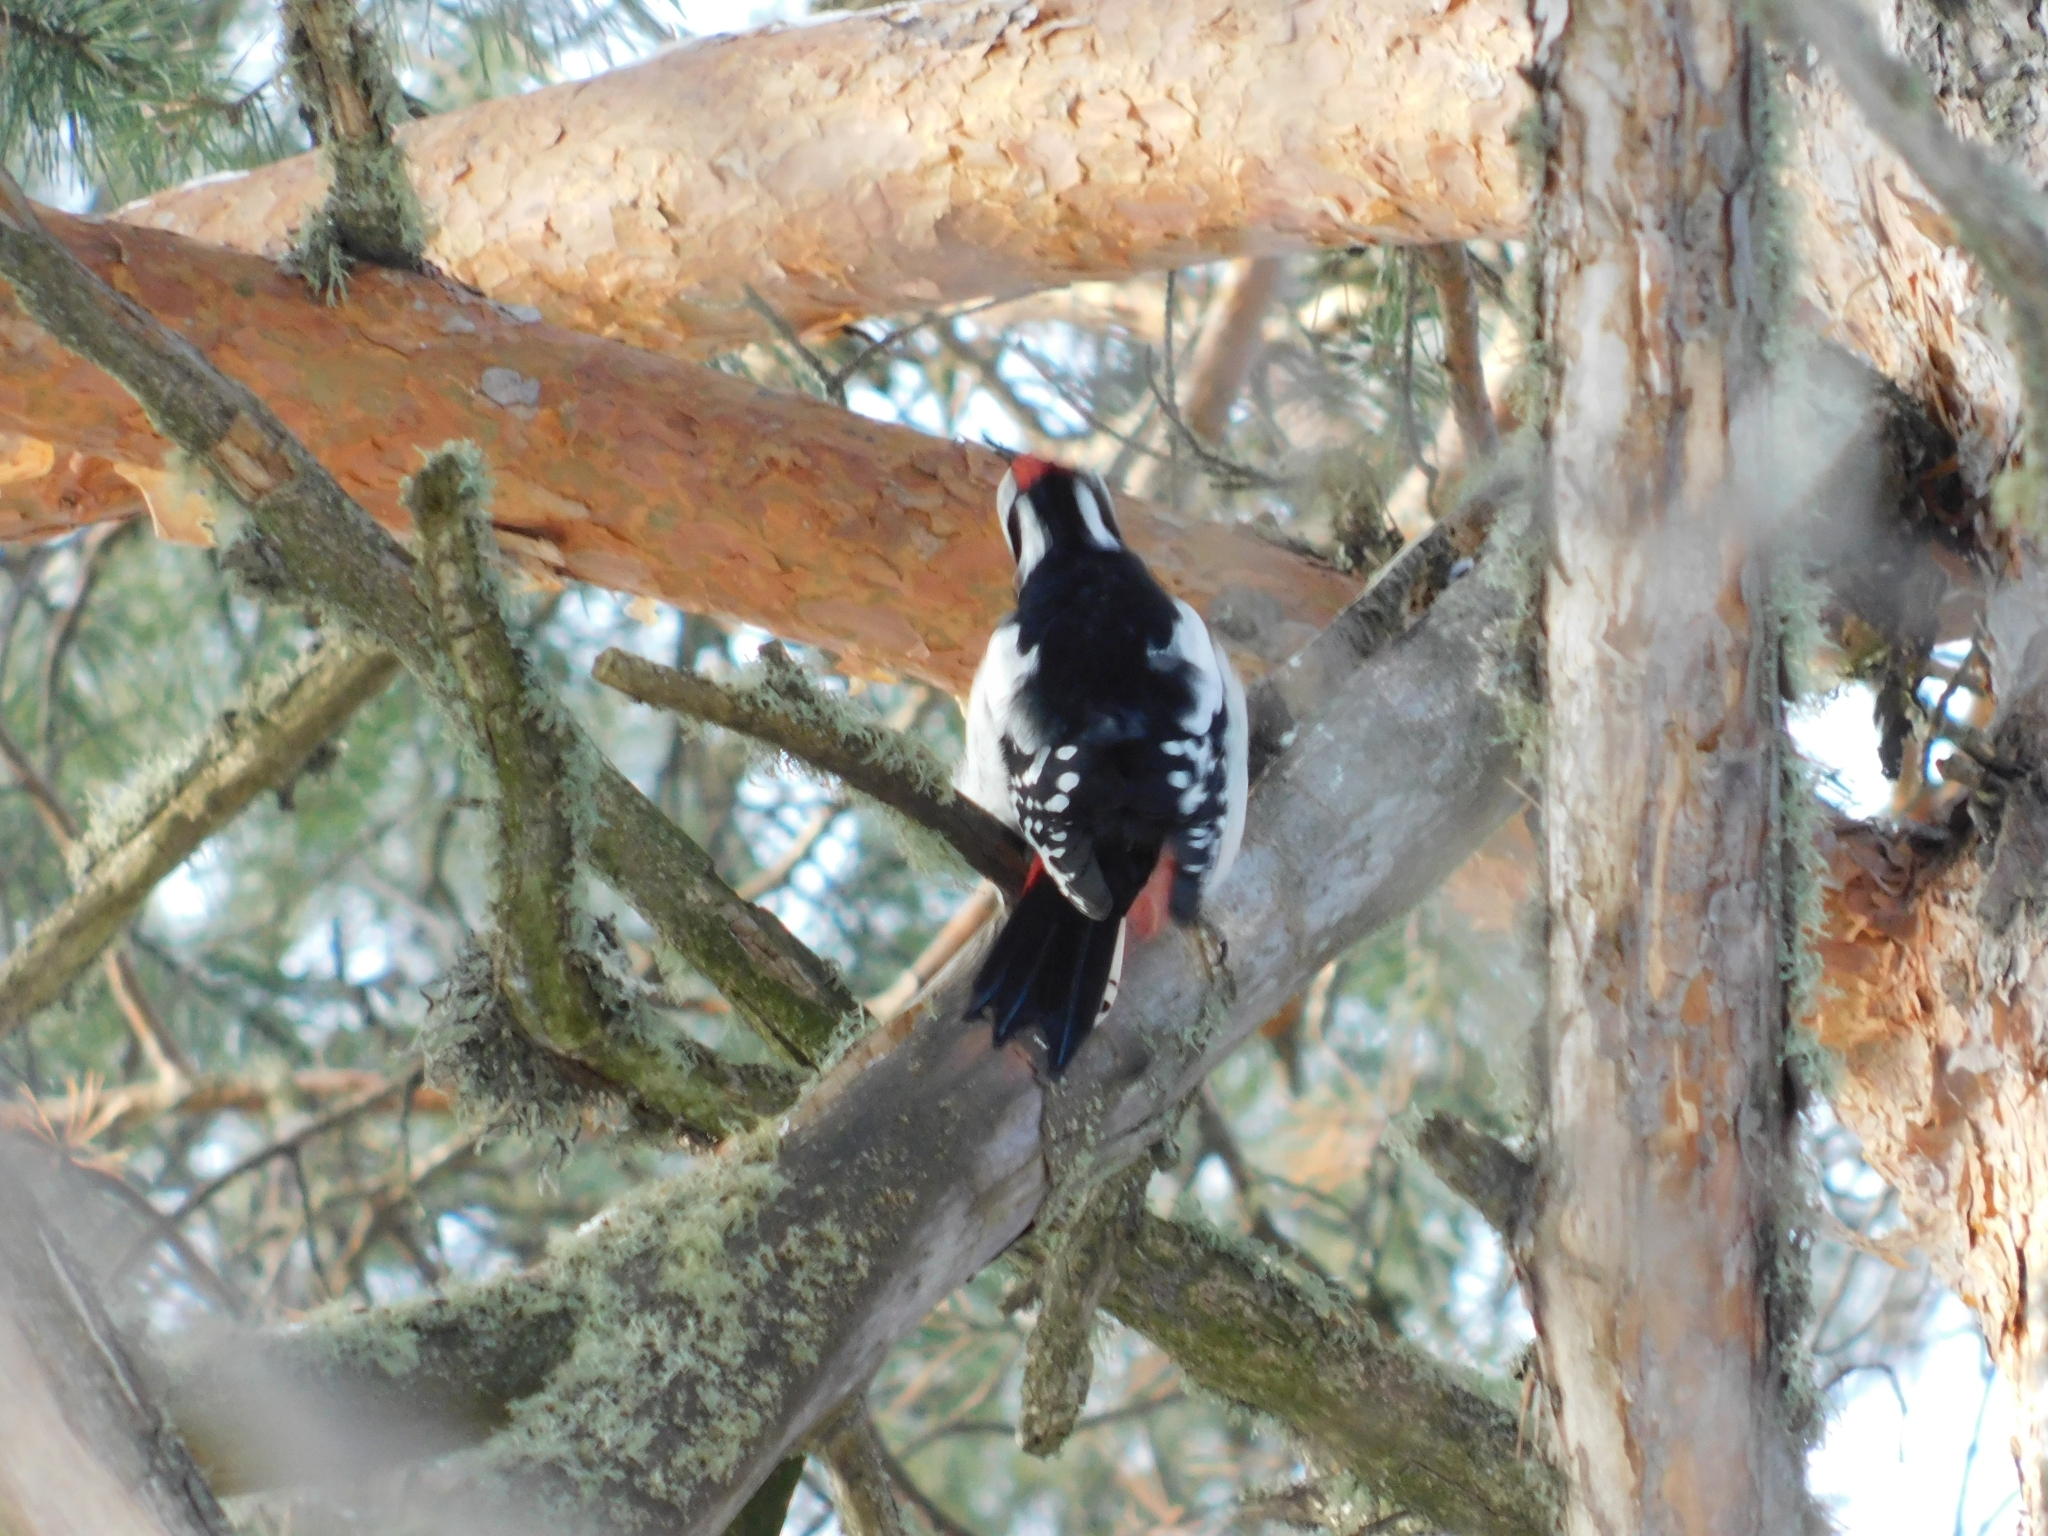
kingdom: Animalia
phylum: Chordata
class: Aves
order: Piciformes
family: Picidae
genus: Dendrocopos
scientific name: Dendrocopos major
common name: Great spotted woodpecker
